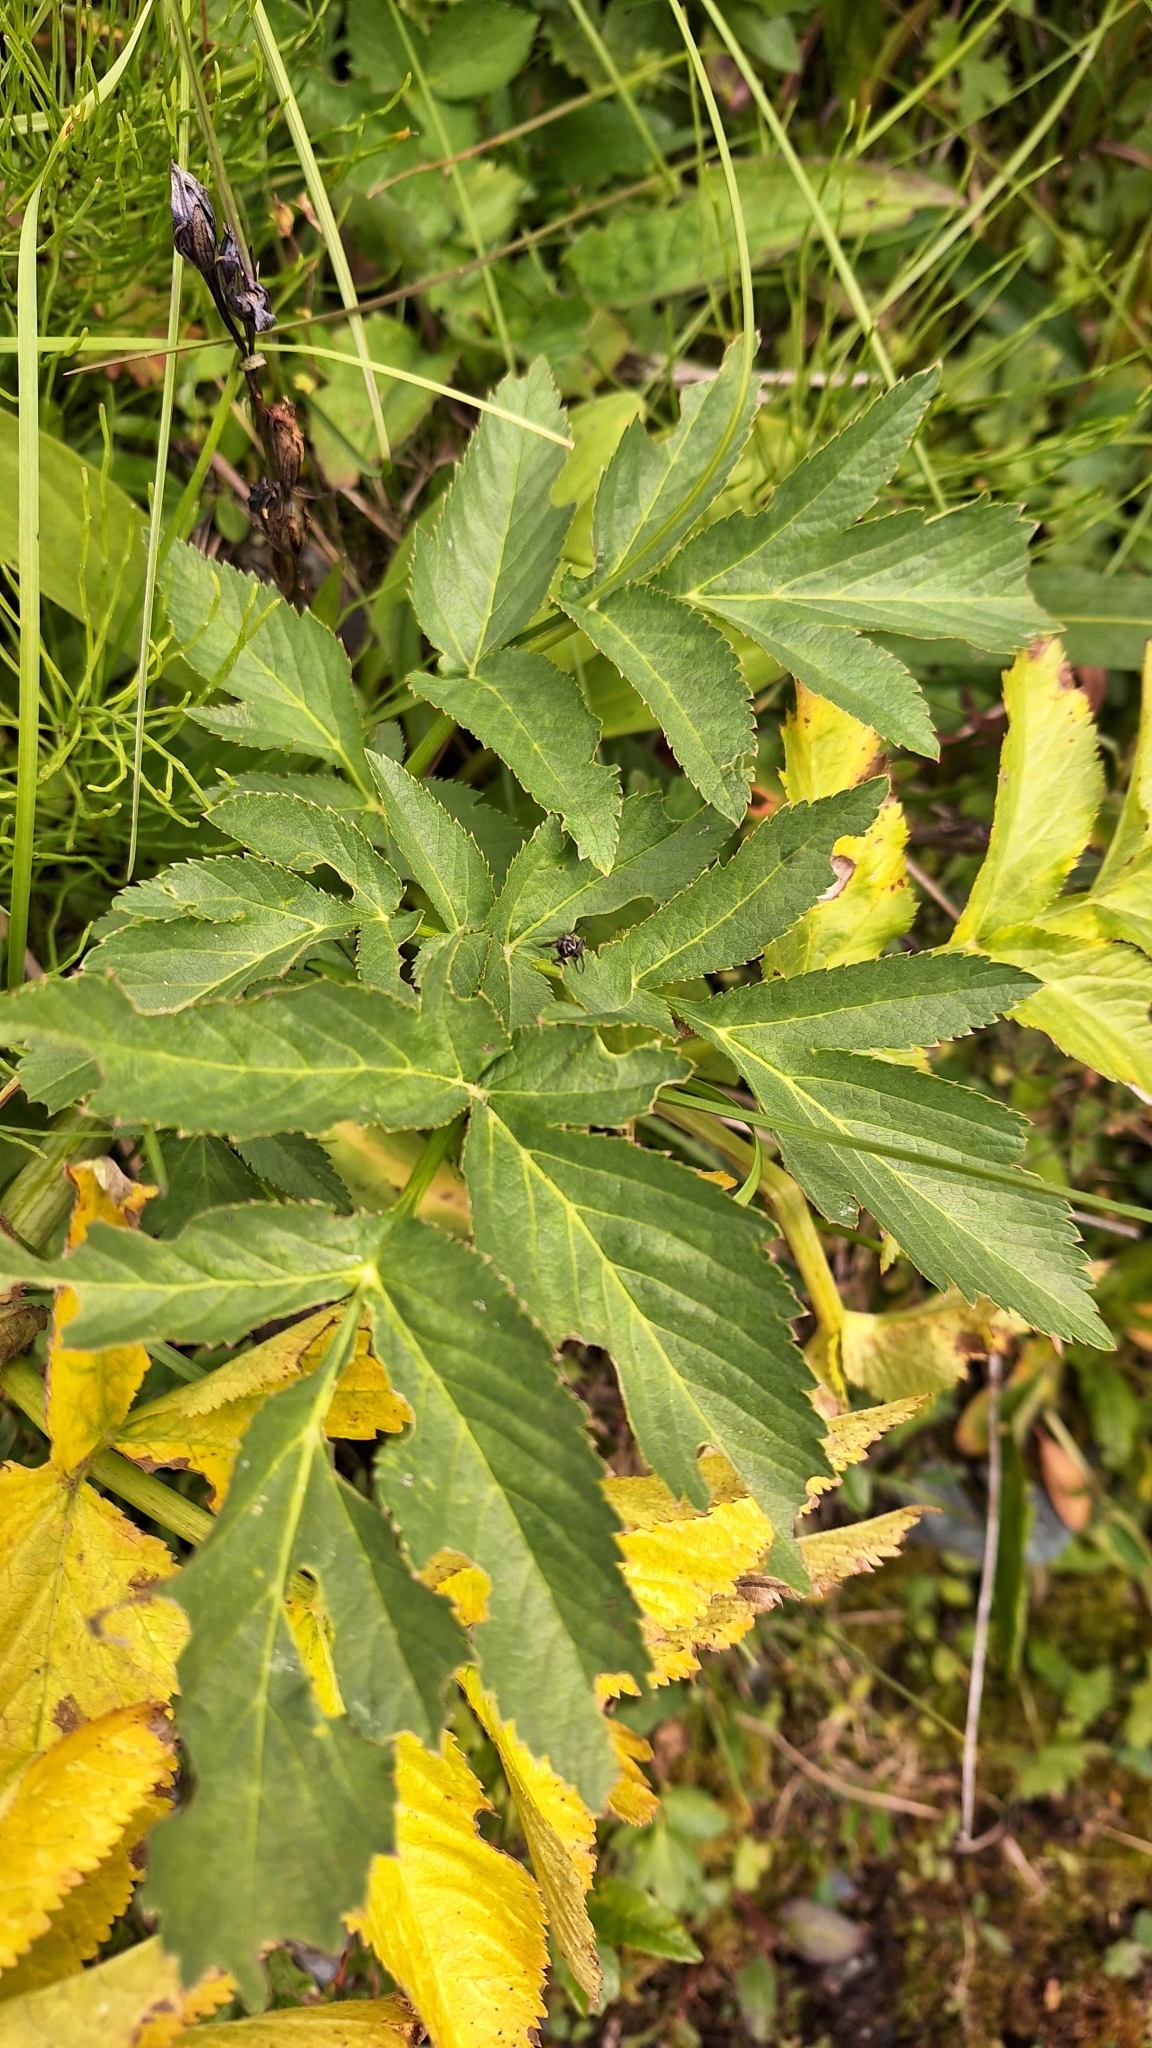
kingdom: Plantae
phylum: Tracheophyta
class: Magnoliopsida
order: Apiales
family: Apiaceae
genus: Angelica
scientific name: Angelica decurrens
